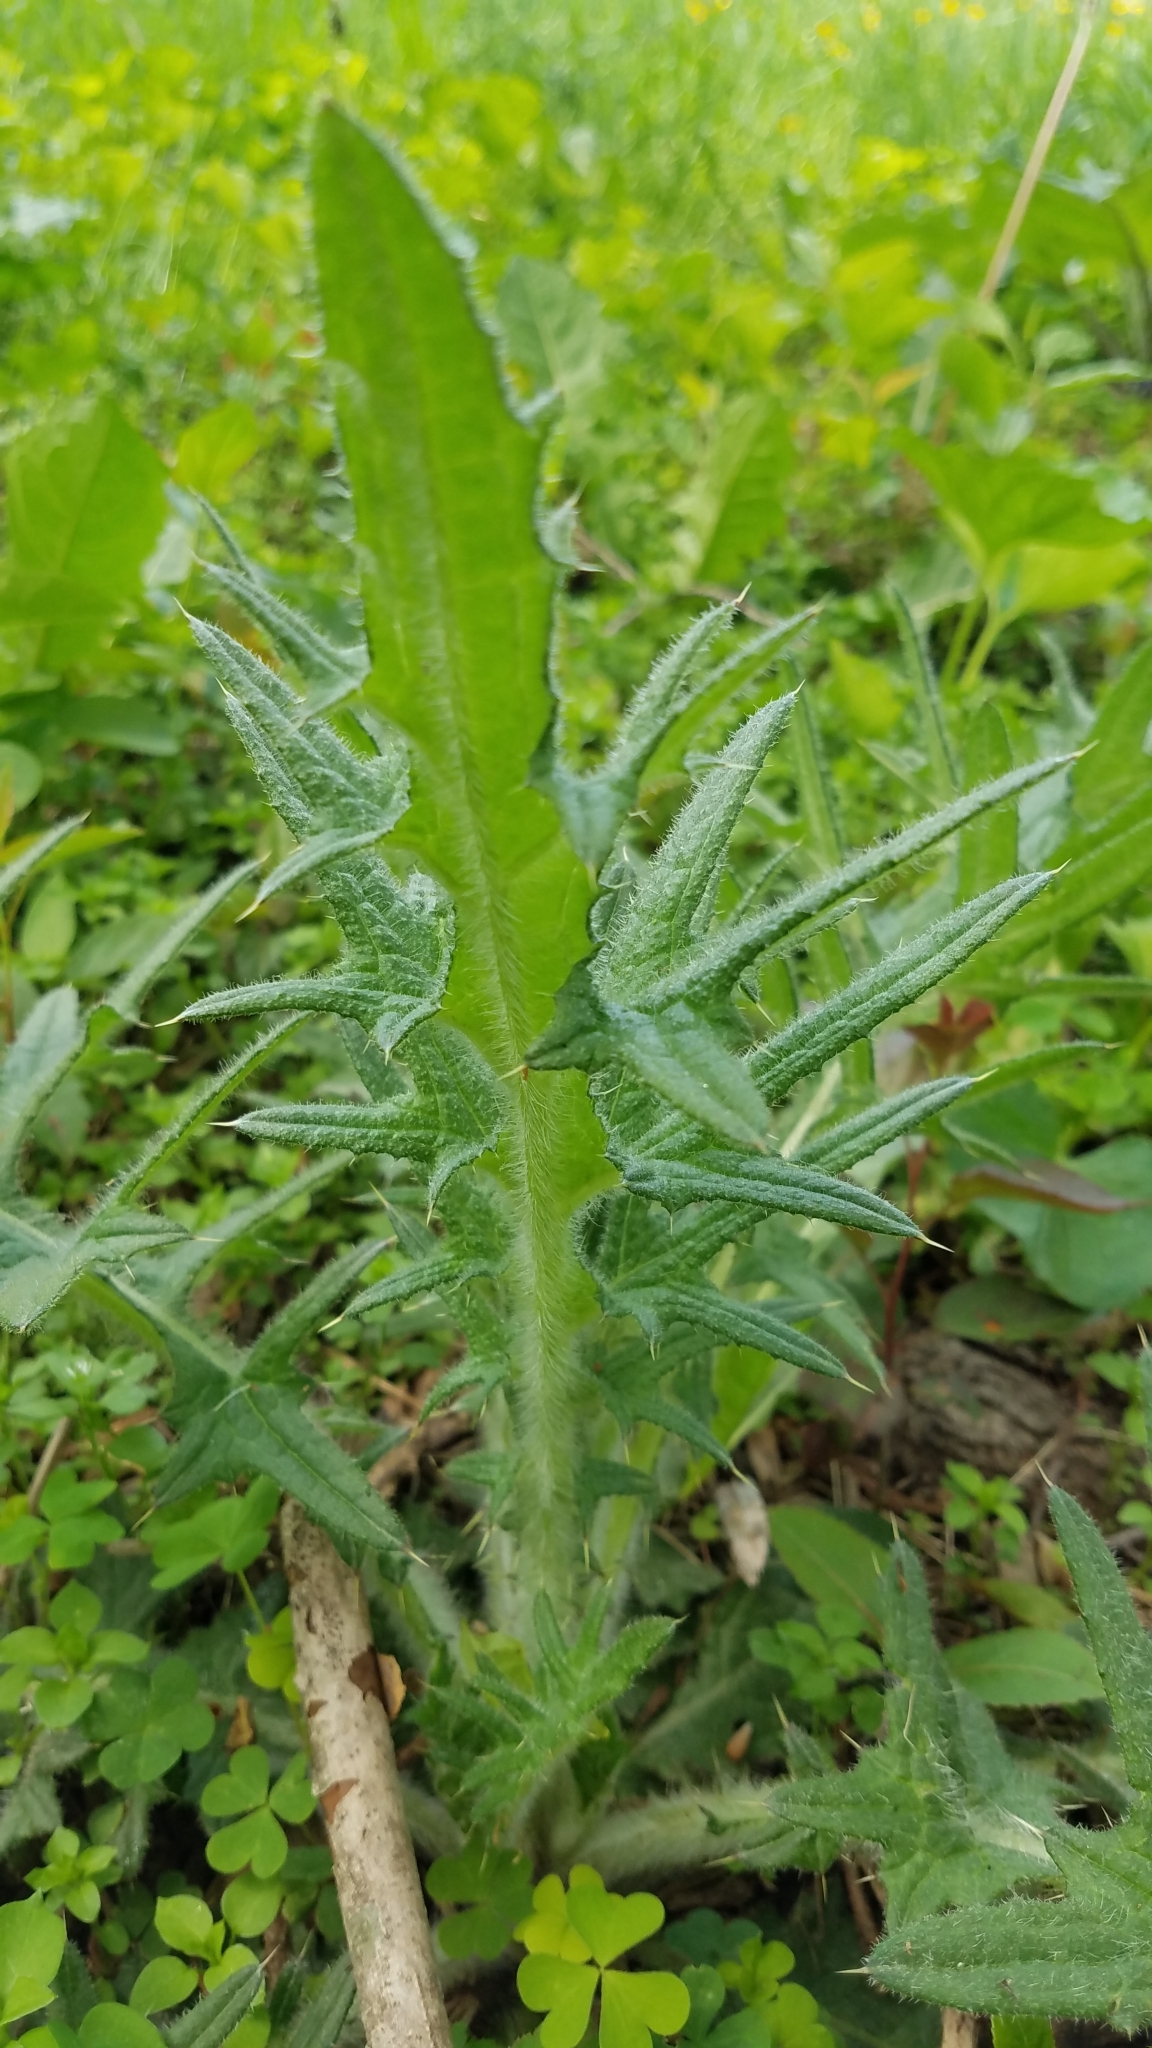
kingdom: Plantae
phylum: Tracheophyta
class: Magnoliopsida
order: Asterales
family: Asteraceae
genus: Cirsium
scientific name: Cirsium vulgare
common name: Bull thistle
